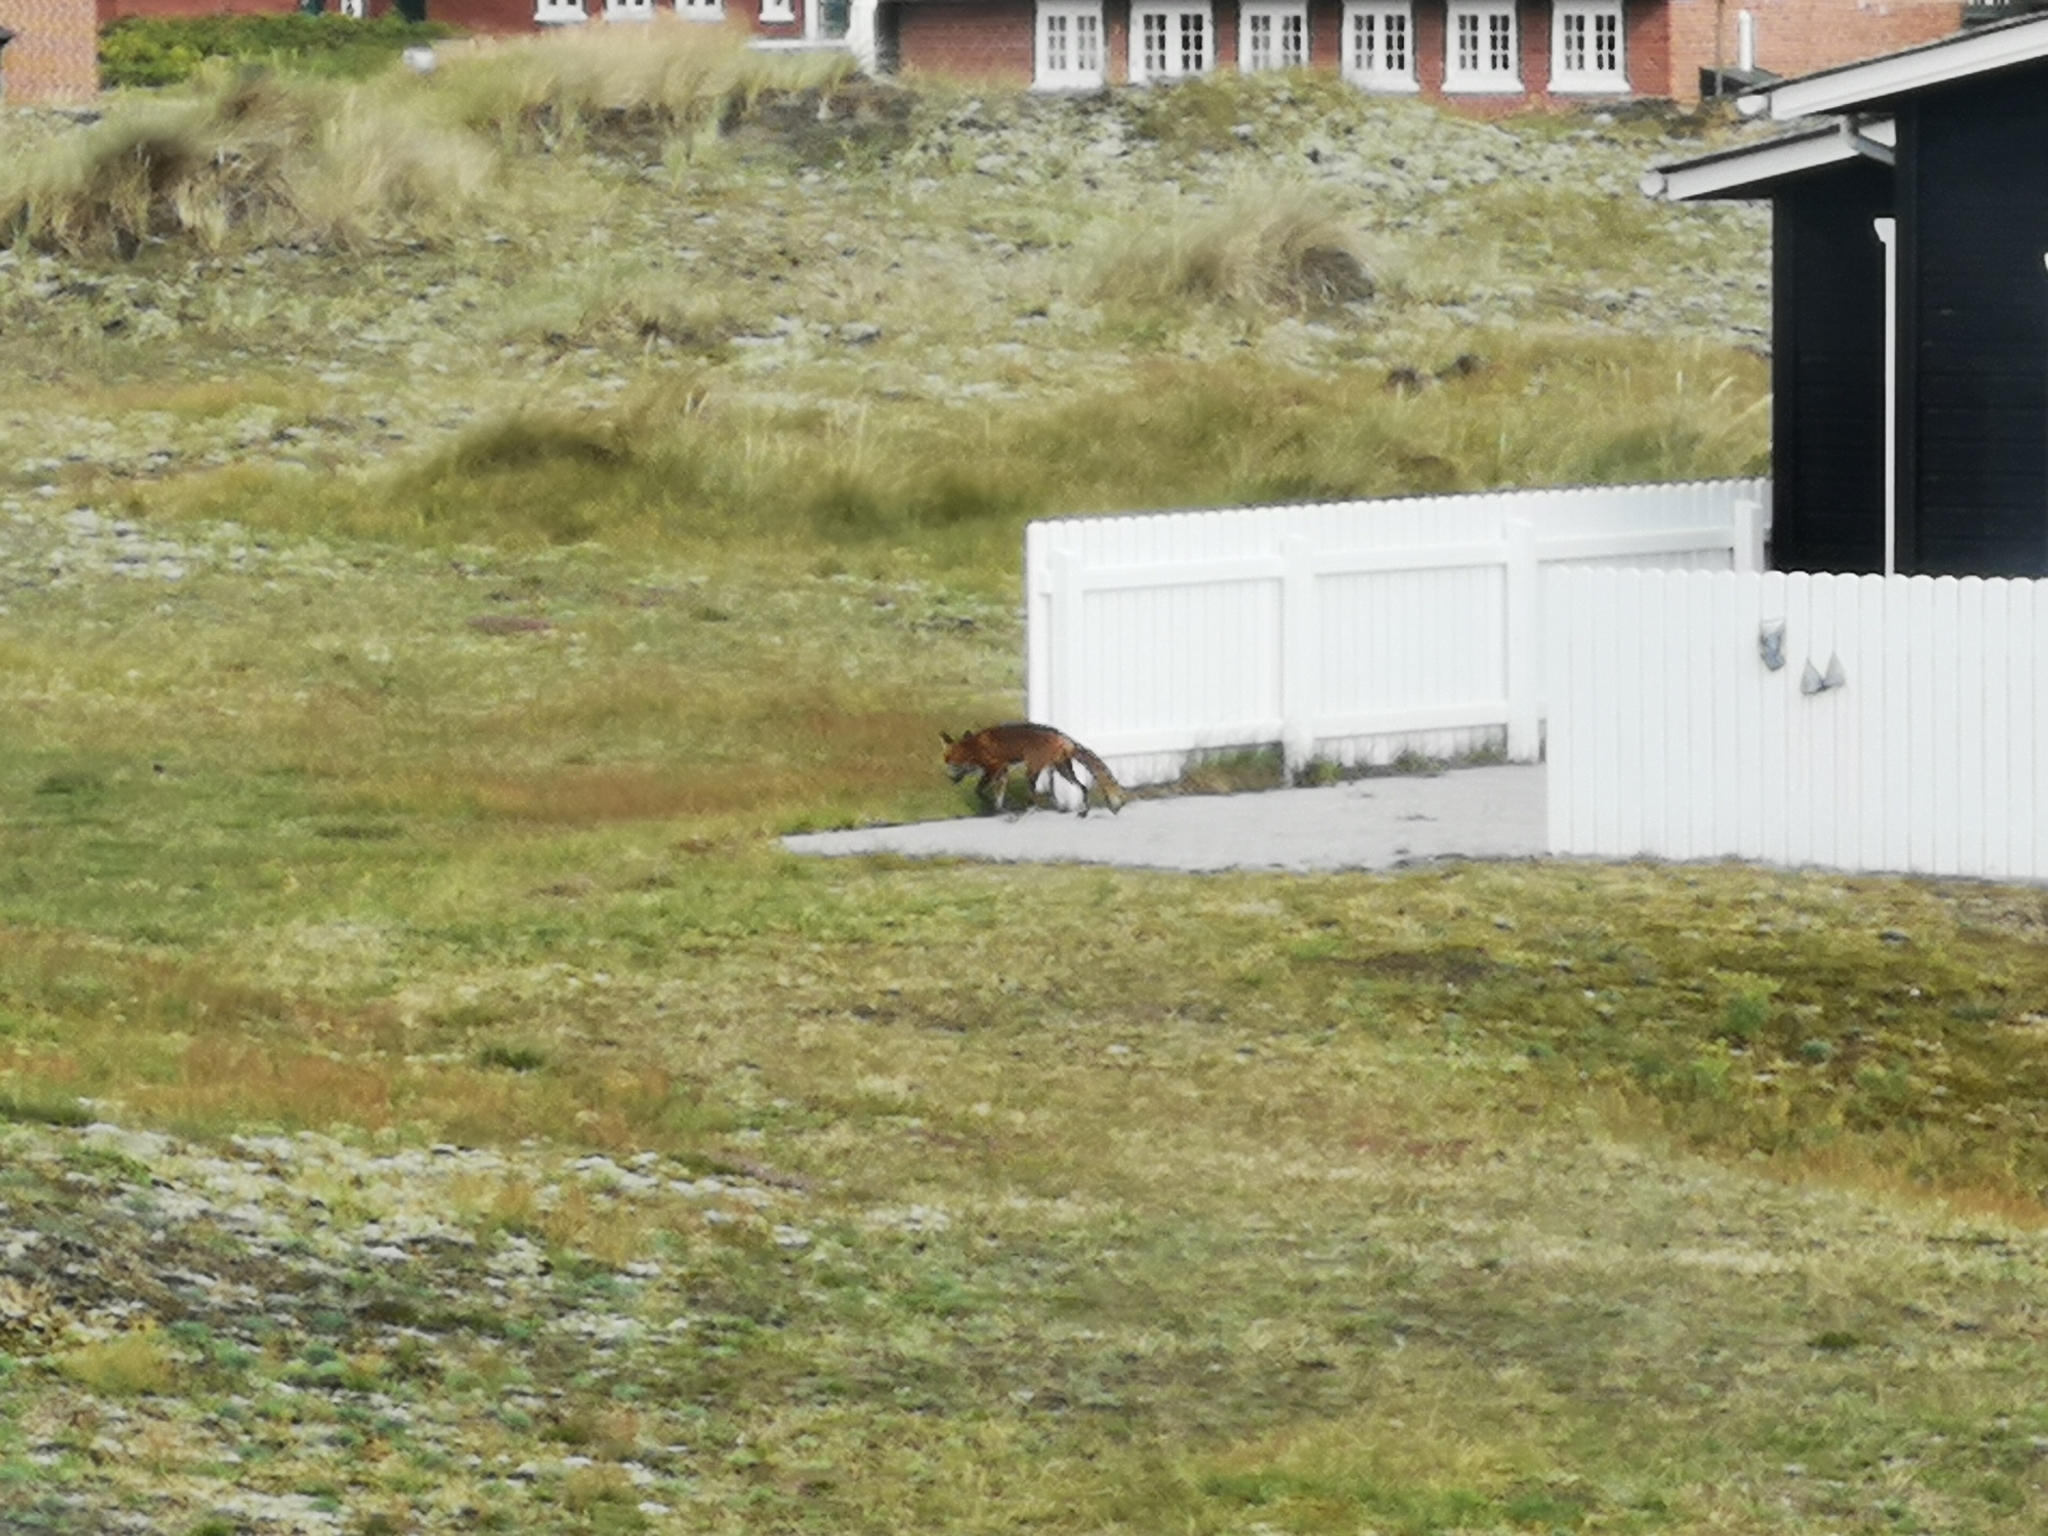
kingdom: Animalia
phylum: Chordata
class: Mammalia
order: Carnivora
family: Canidae
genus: Vulpes
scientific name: Vulpes vulpes
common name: Red fox
